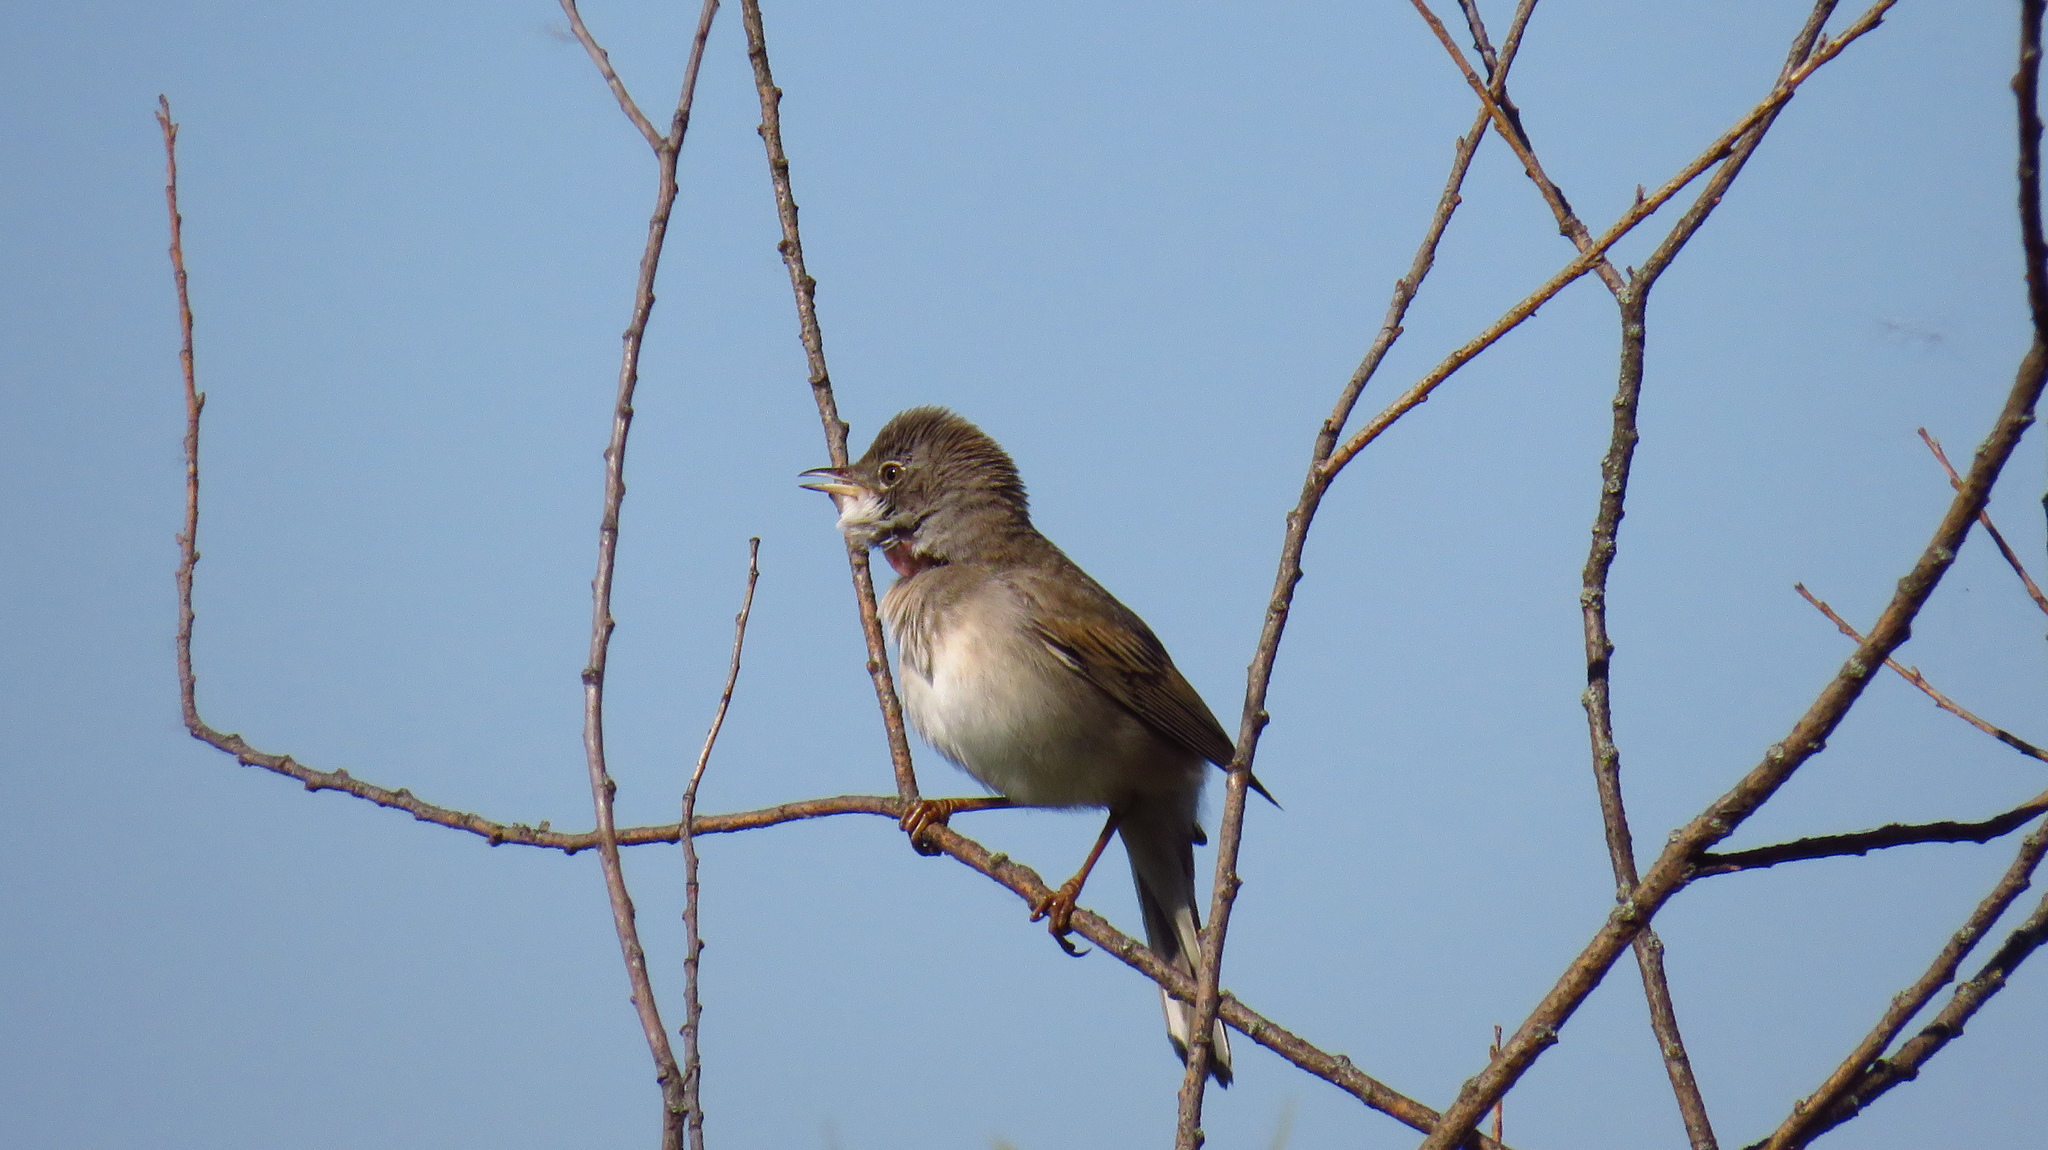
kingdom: Animalia
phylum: Chordata
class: Aves
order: Passeriformes
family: Sylviidae
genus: Sylvia
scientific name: Sylvia communis
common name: Common whitethroat
